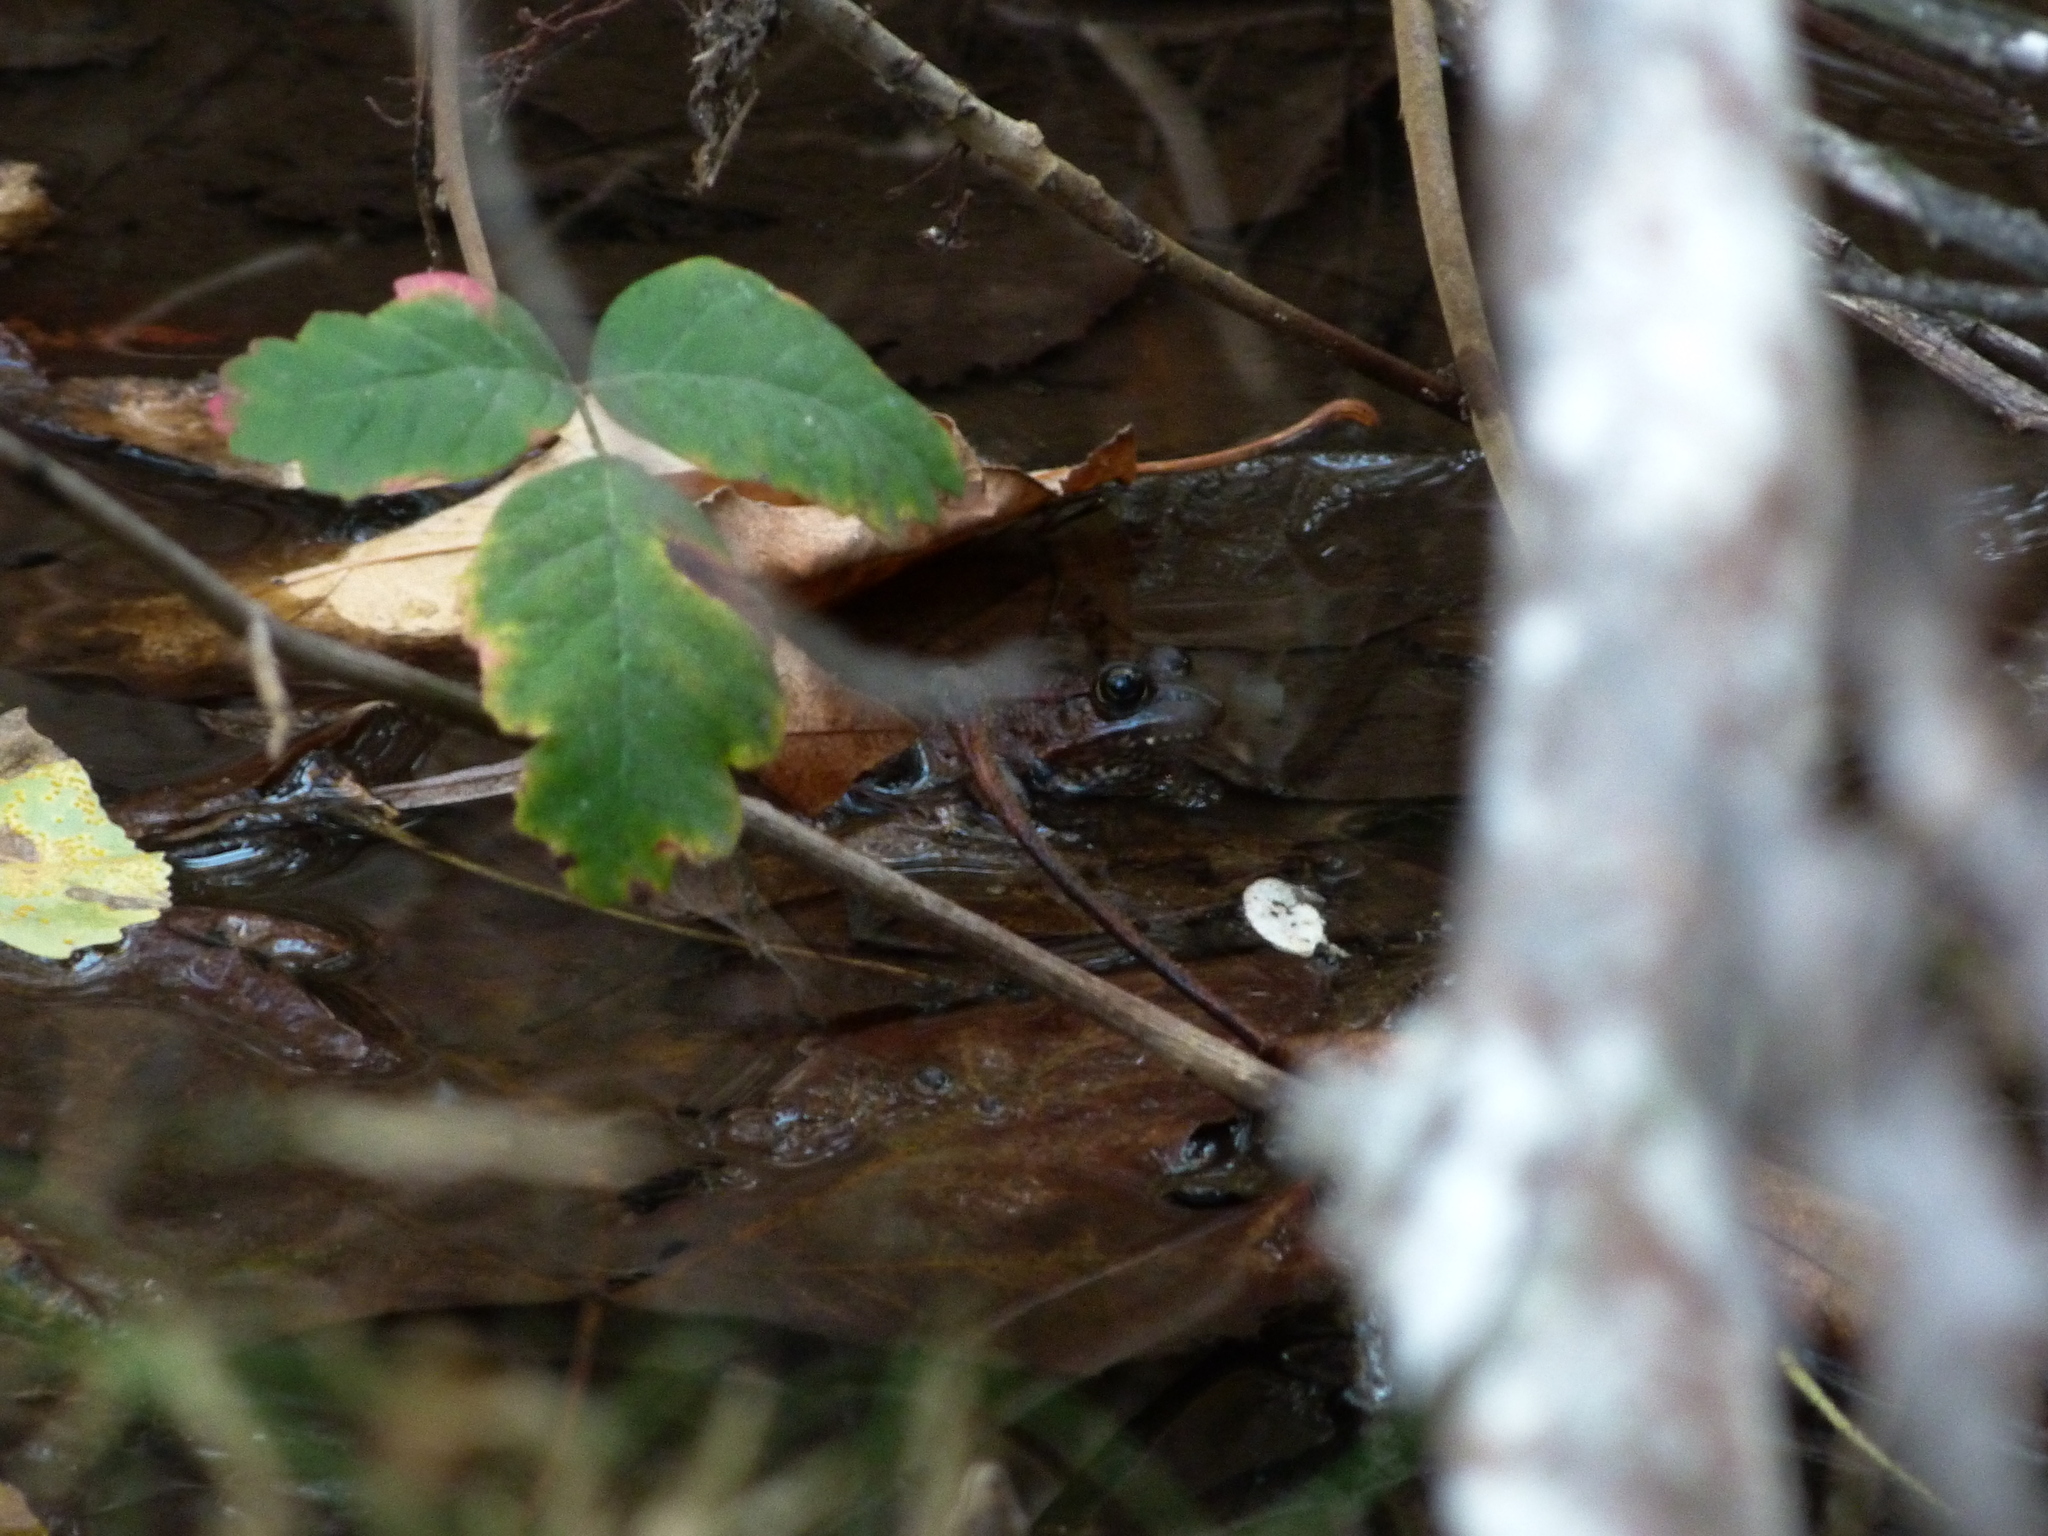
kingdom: Animalia
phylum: Chordata
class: Amphibia
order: Anura
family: Ranidae
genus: Rana
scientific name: Rana draytonii
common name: California red-legged frog
